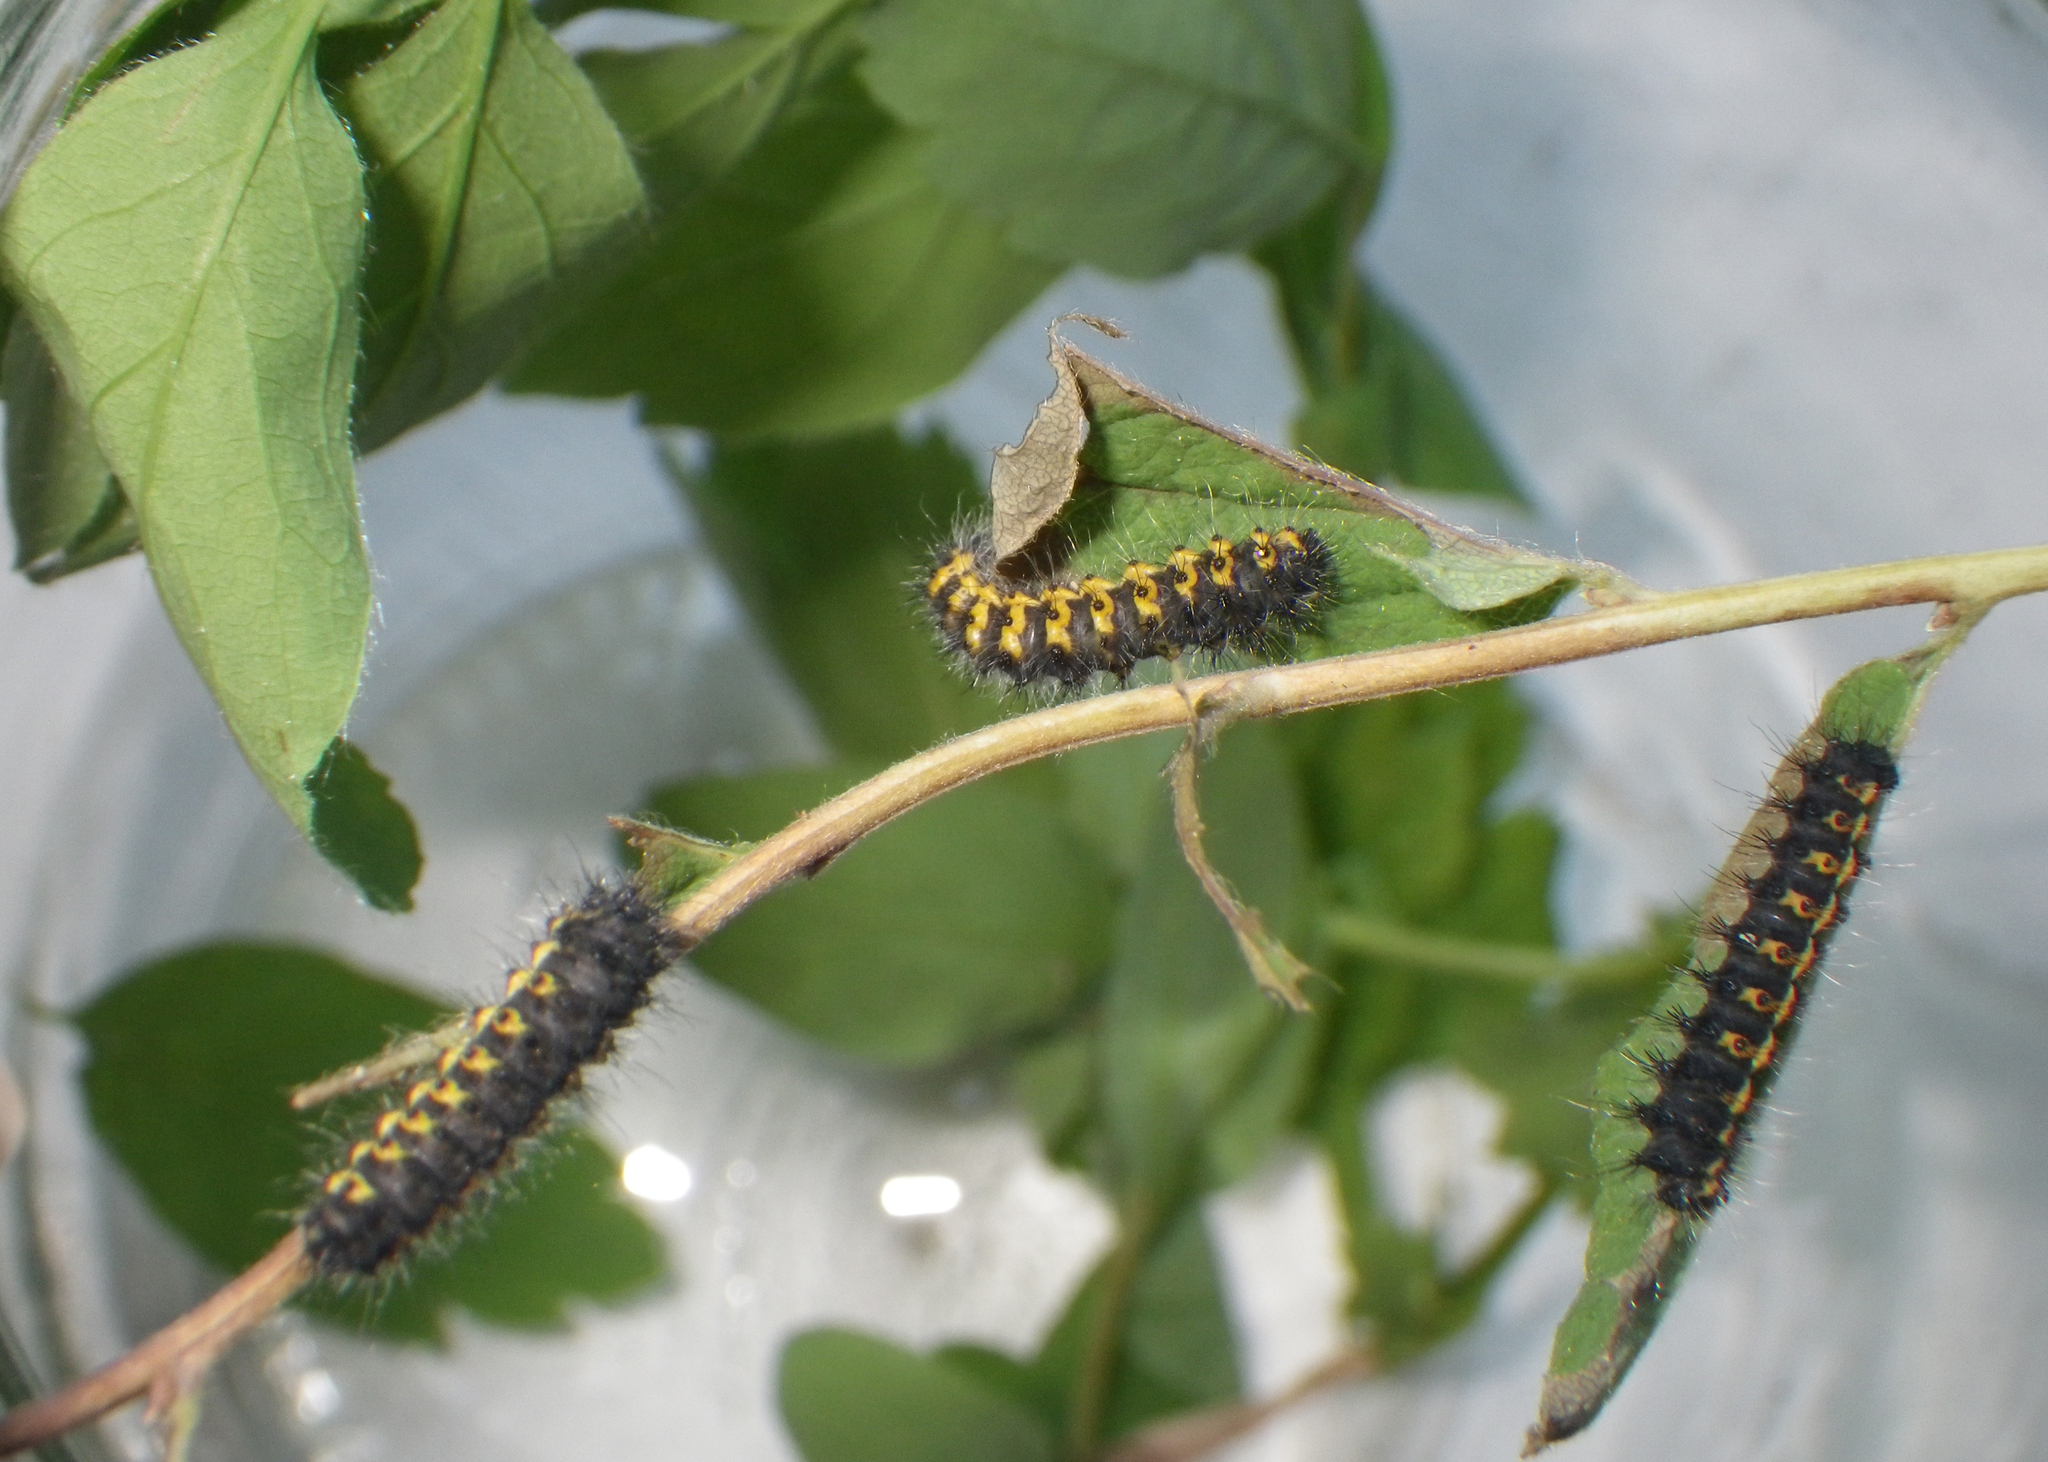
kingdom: Animalia
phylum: Arthropoda
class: Insecta
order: Lepidoptera
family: Saturniidae
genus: Saturnia
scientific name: Saturnia pavonia
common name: Emperor moth
